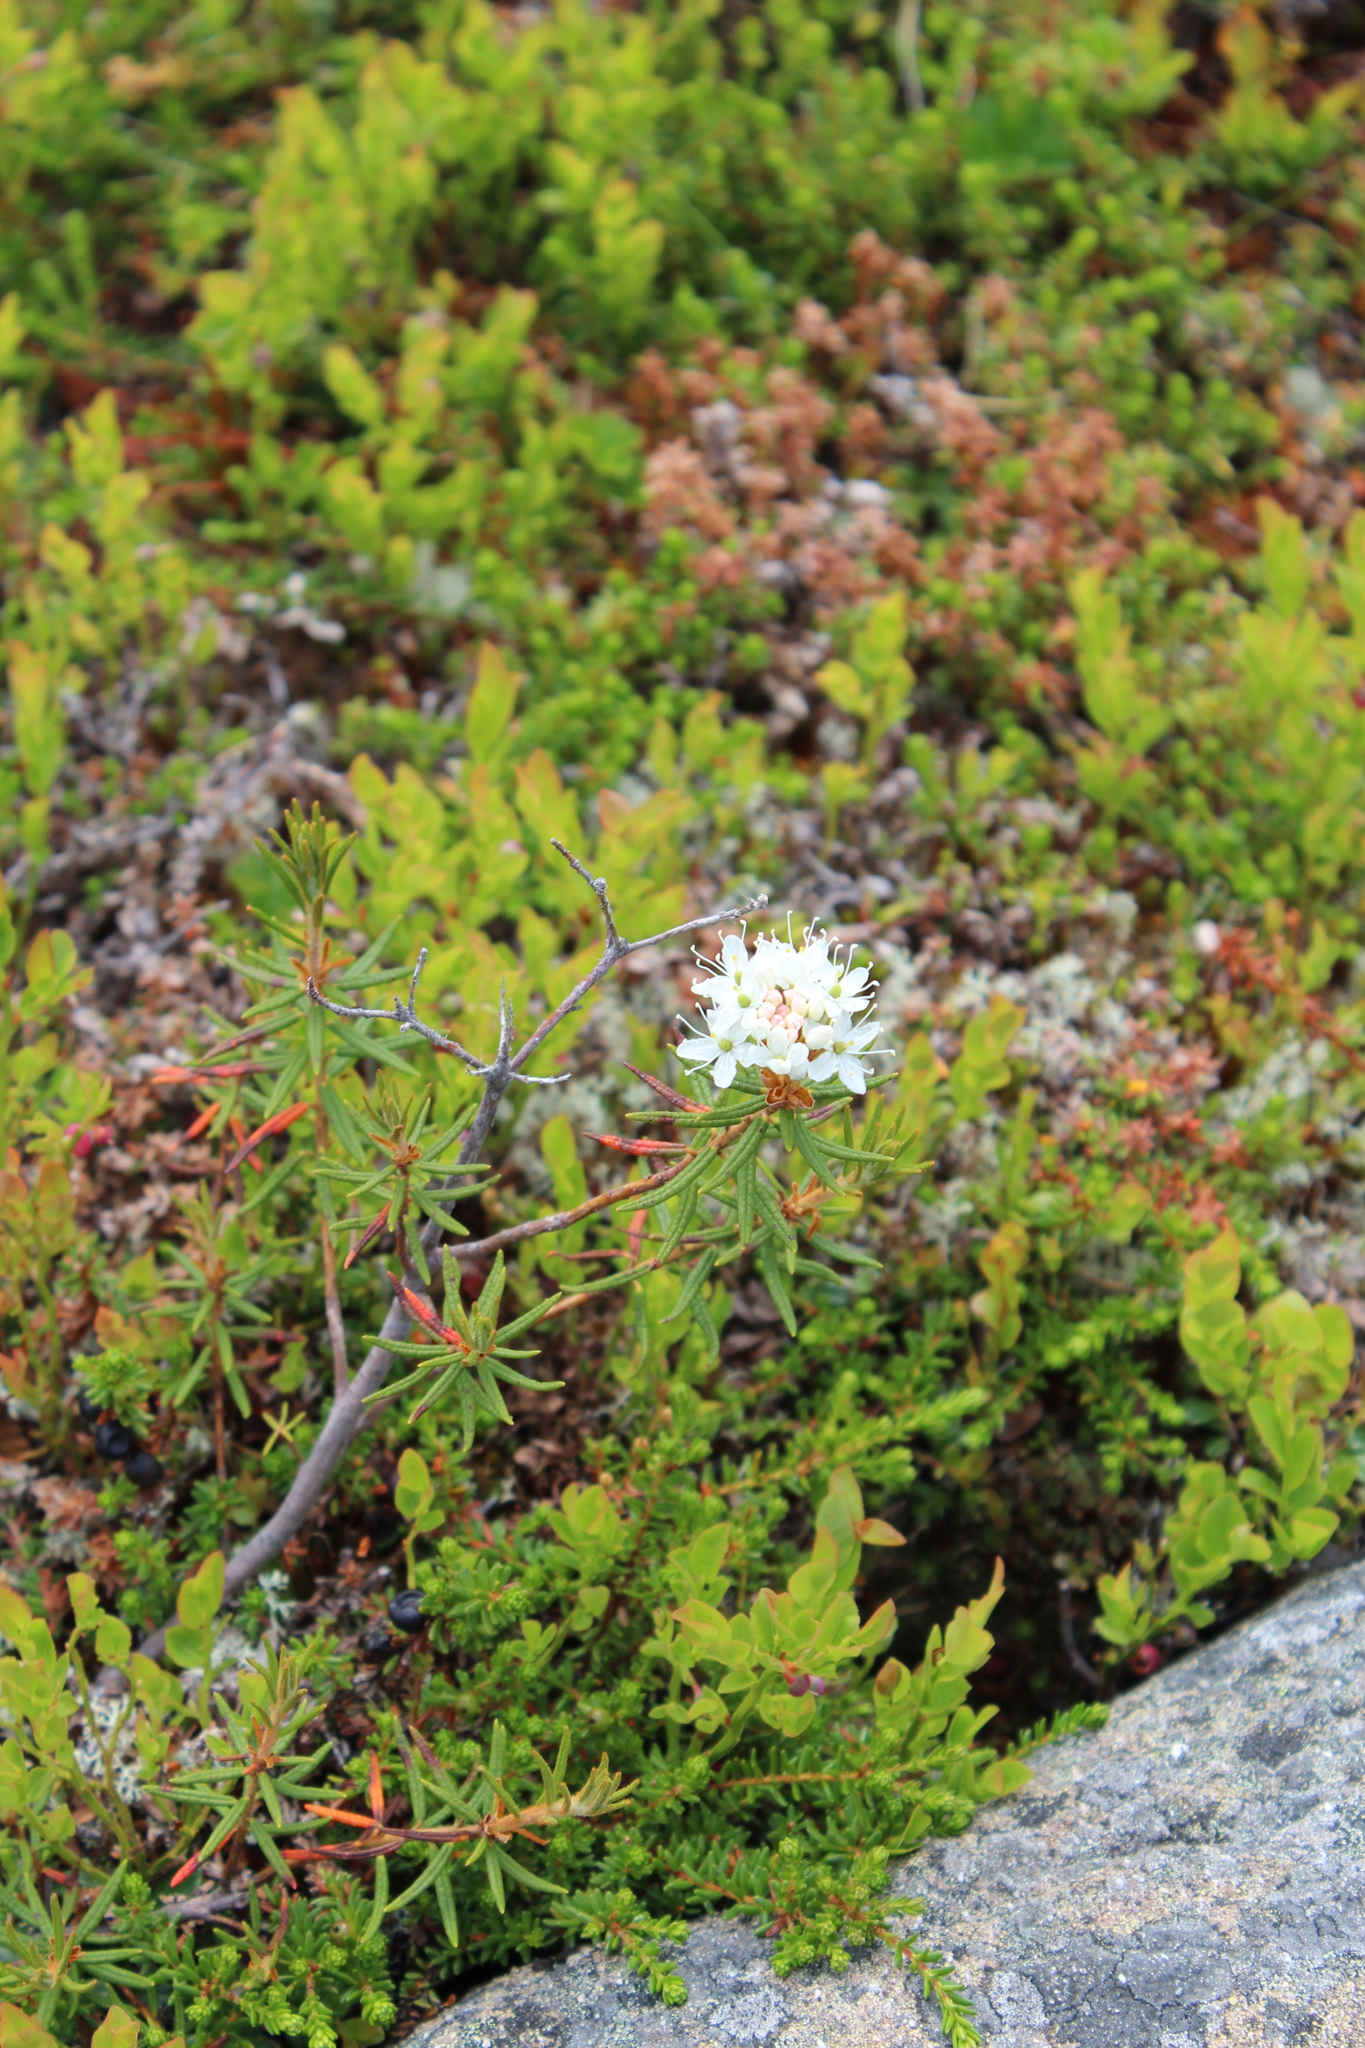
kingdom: Plantae
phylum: Tracheophyta
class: Magnoliopsida
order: Ericales
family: Ericaceae
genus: Rhododendron
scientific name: Rhododendron tomentosum
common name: Marsh labrador tea
